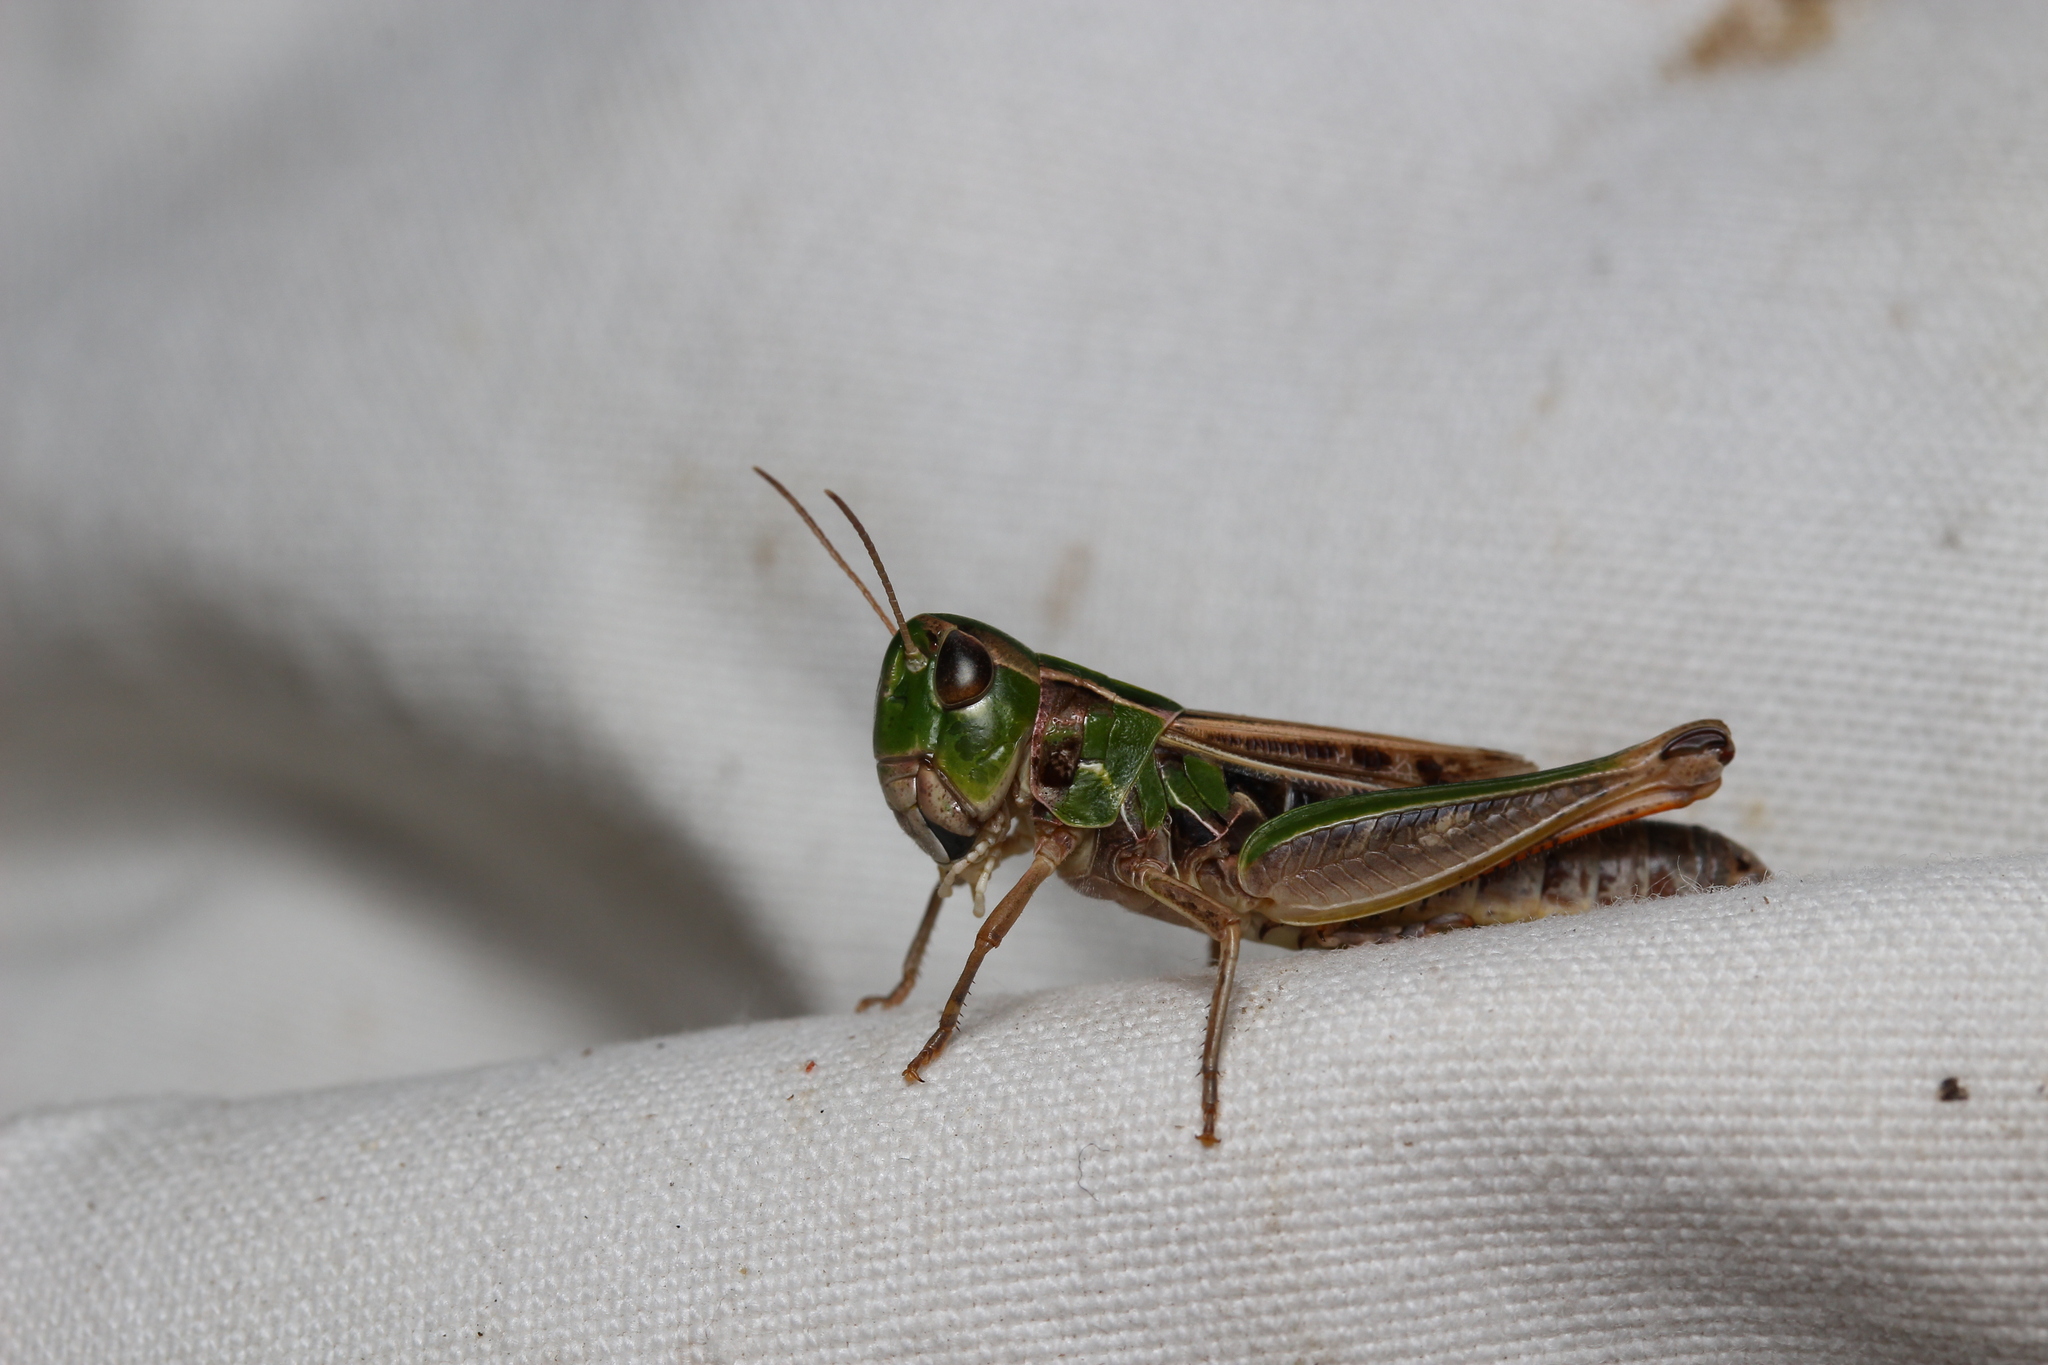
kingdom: Animalia
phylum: Arthropoda
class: Insecta
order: Orthoptera
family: Acrididae
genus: Stenobothrus
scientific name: Stenobothrus nigromaculatus
